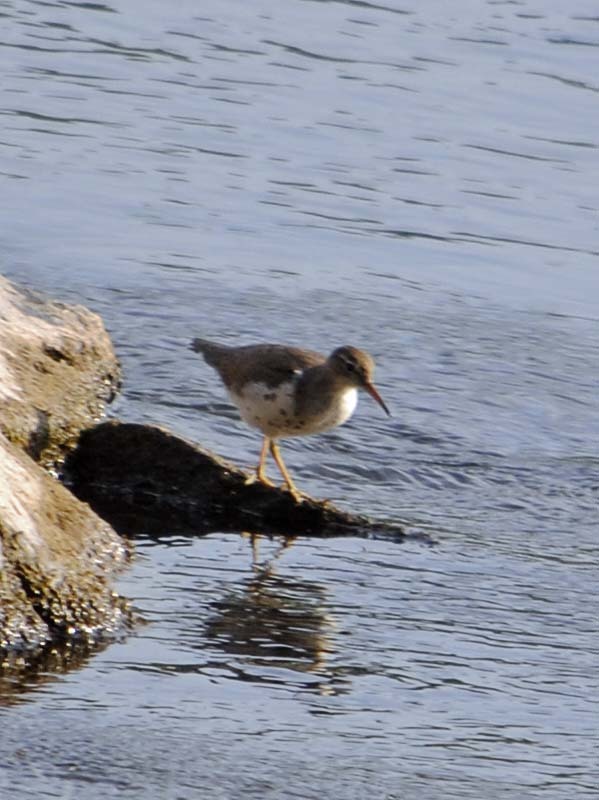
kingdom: Animalia
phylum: Chordata
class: Aves
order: Charadriiformes
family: Scolopacidae
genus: Actitis
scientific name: Actitis macularius
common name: Spotted sandpiper
